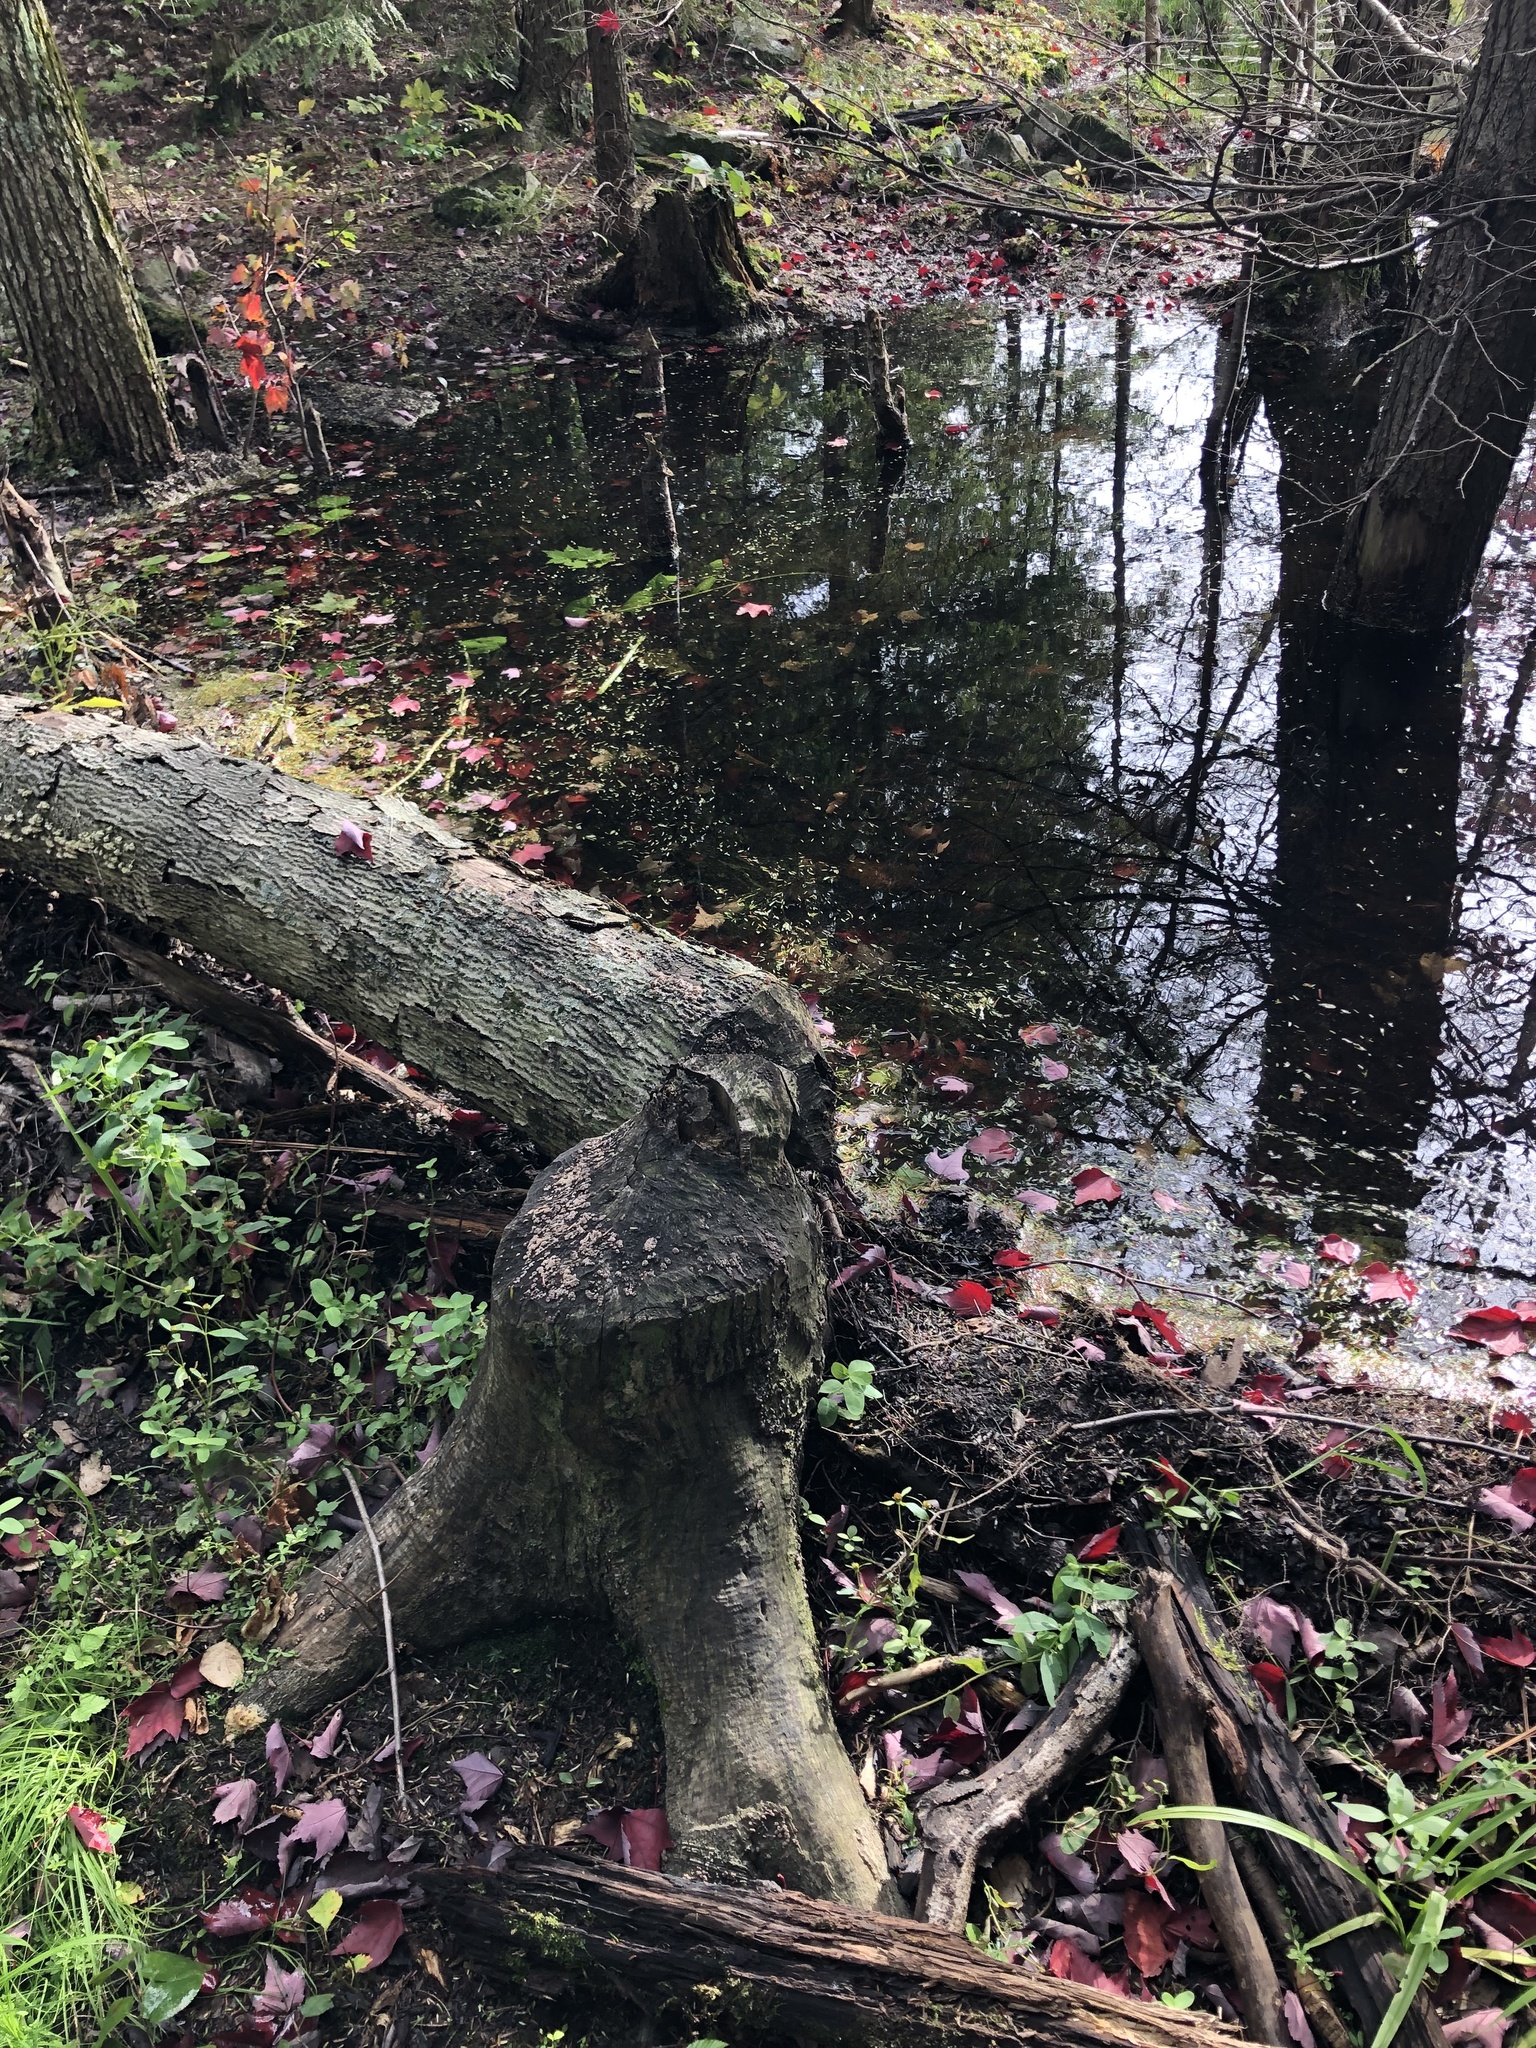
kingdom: Animalia
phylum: Chordata
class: Mammalia
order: Rodentia
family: Castoridae
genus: Castor
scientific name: Castor canadensis
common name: American beaver
